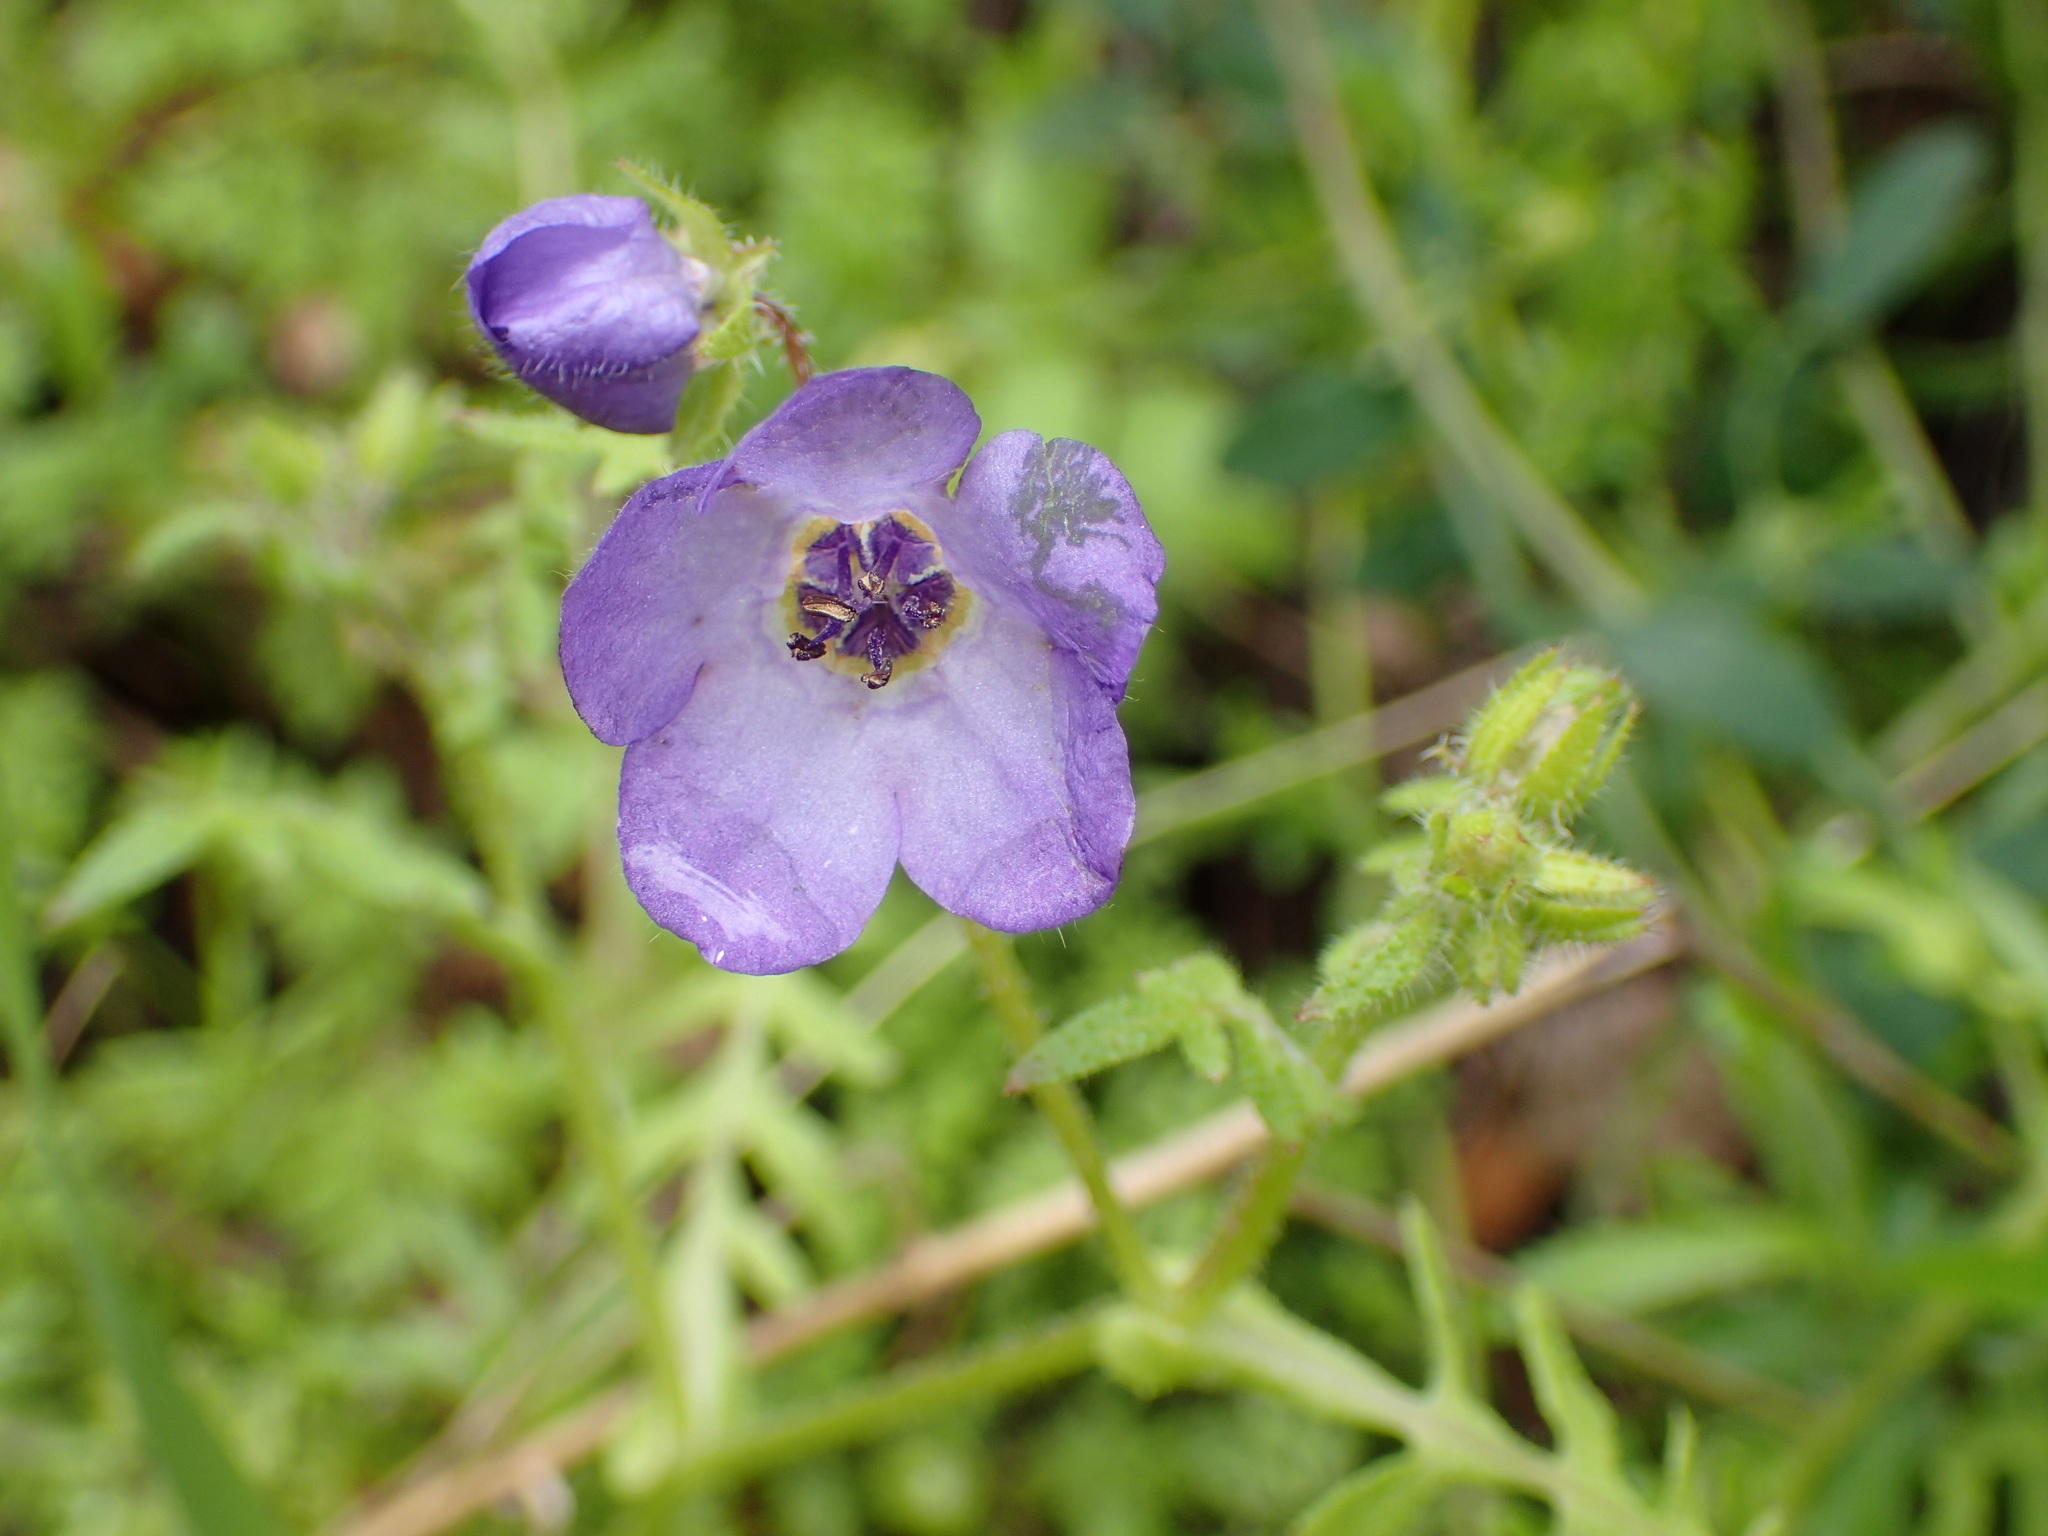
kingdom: Plantae
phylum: Tracheophyta
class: Magnoliopsida
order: Boraginales
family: Hydrophyllaceae
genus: Pholistoma
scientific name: Pholistoma auritum
